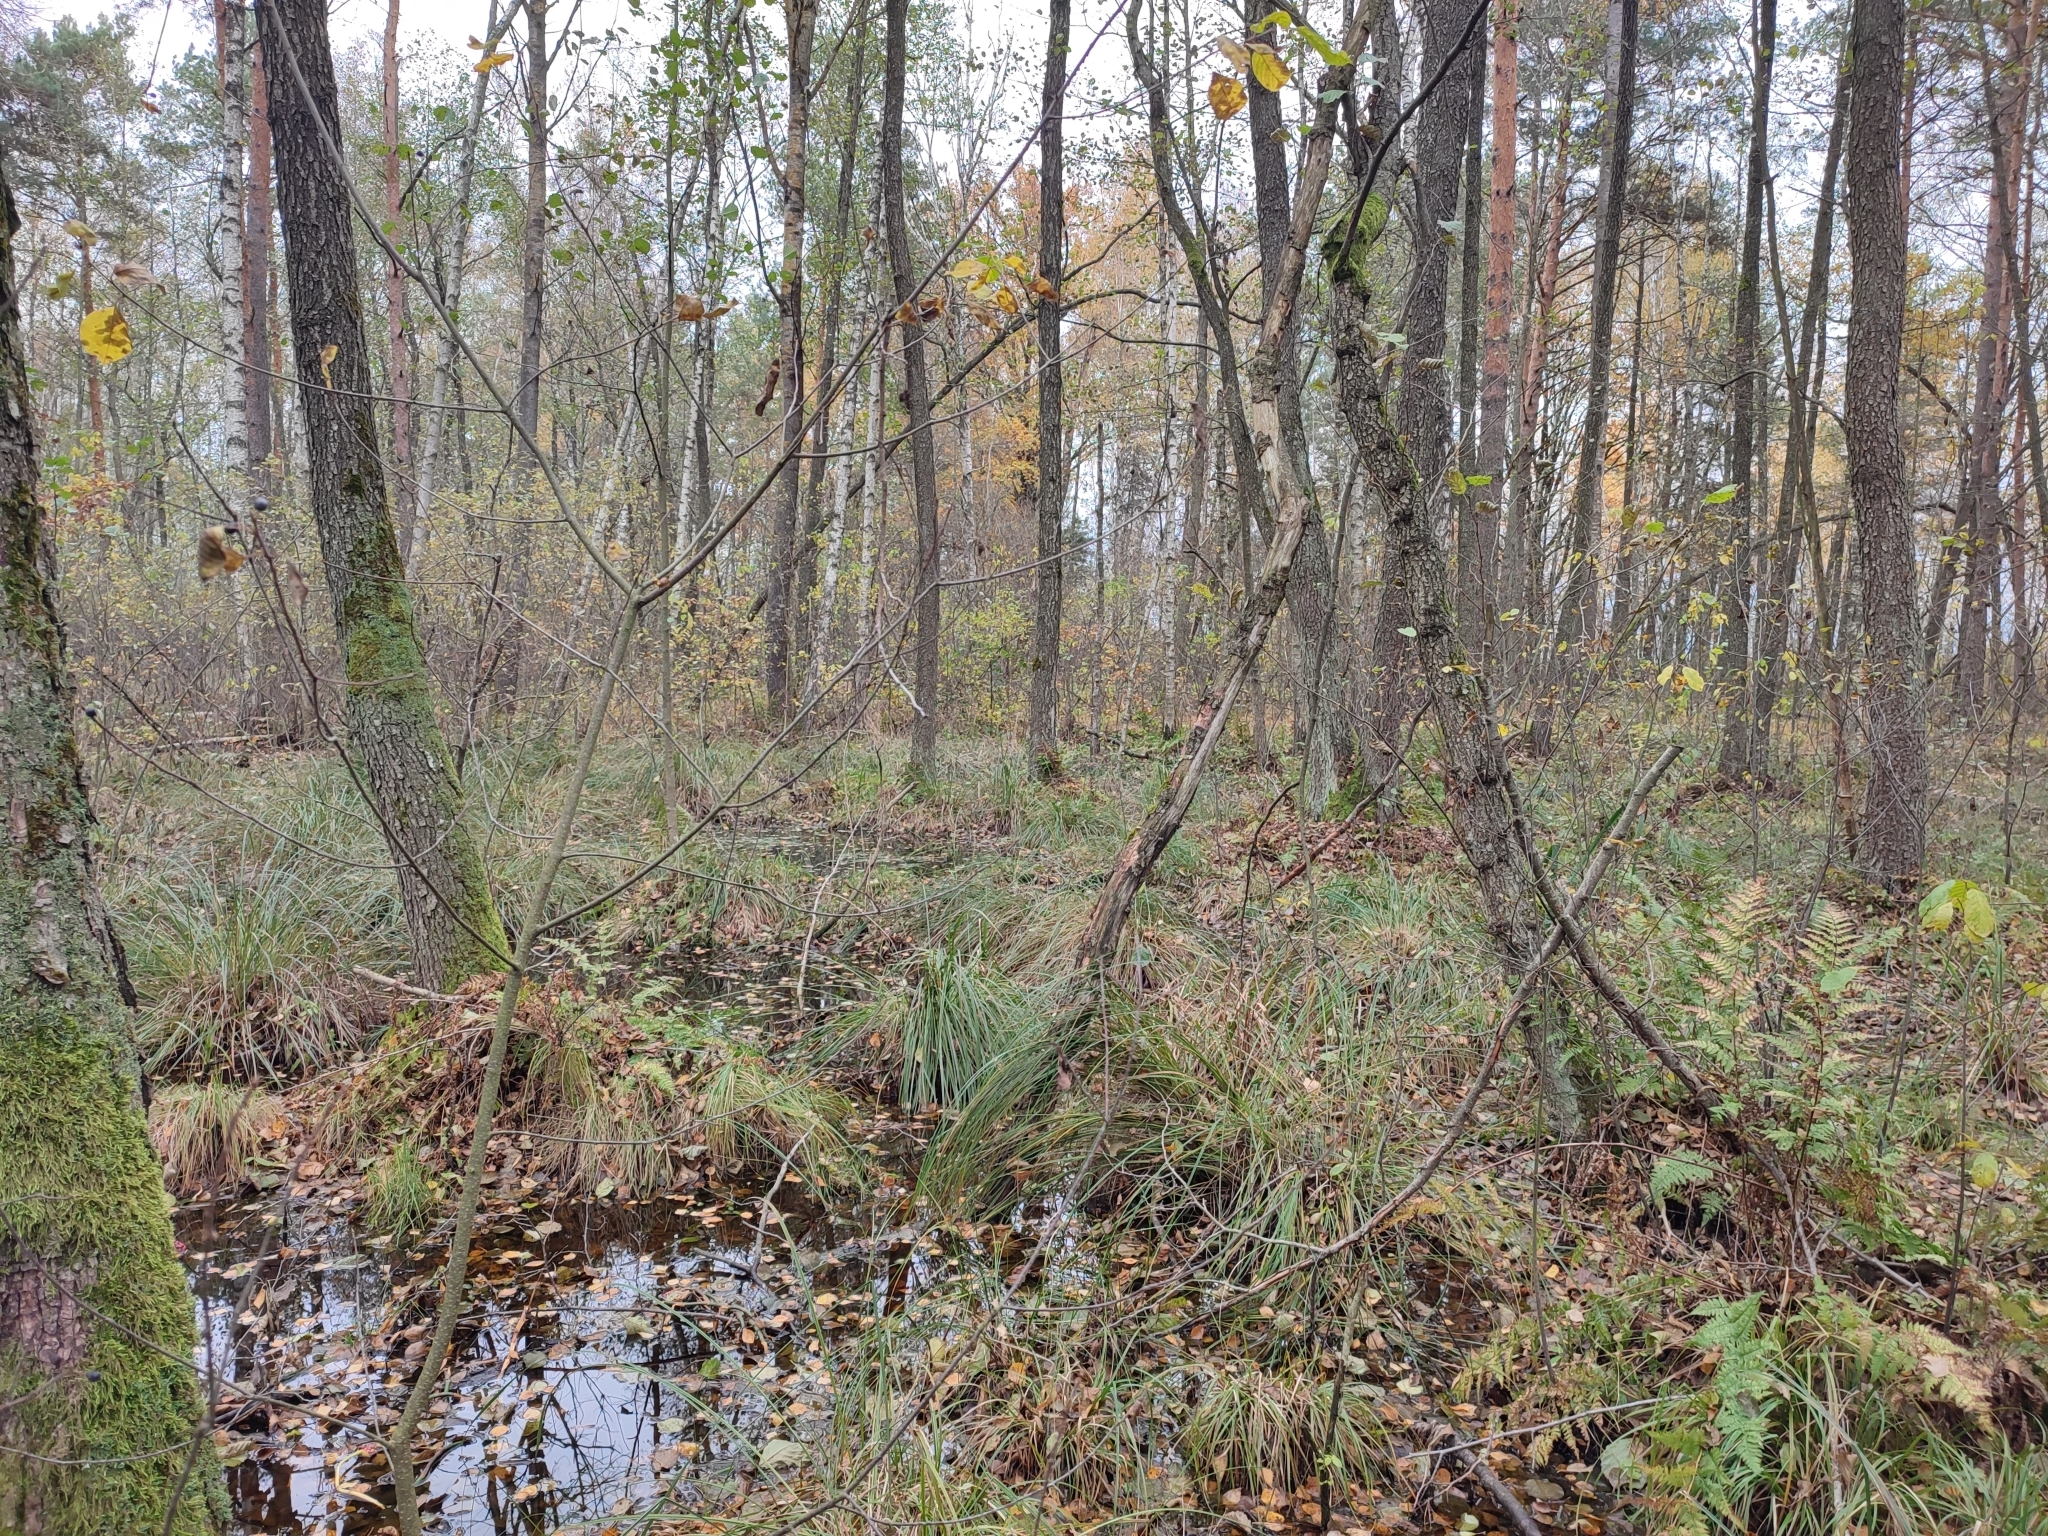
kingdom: Plantae
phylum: Tracheophyta
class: Magnoliopsida
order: Fagales
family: Betulaceae
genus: Alnus
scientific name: Alnus glutinosa
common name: Black alder
